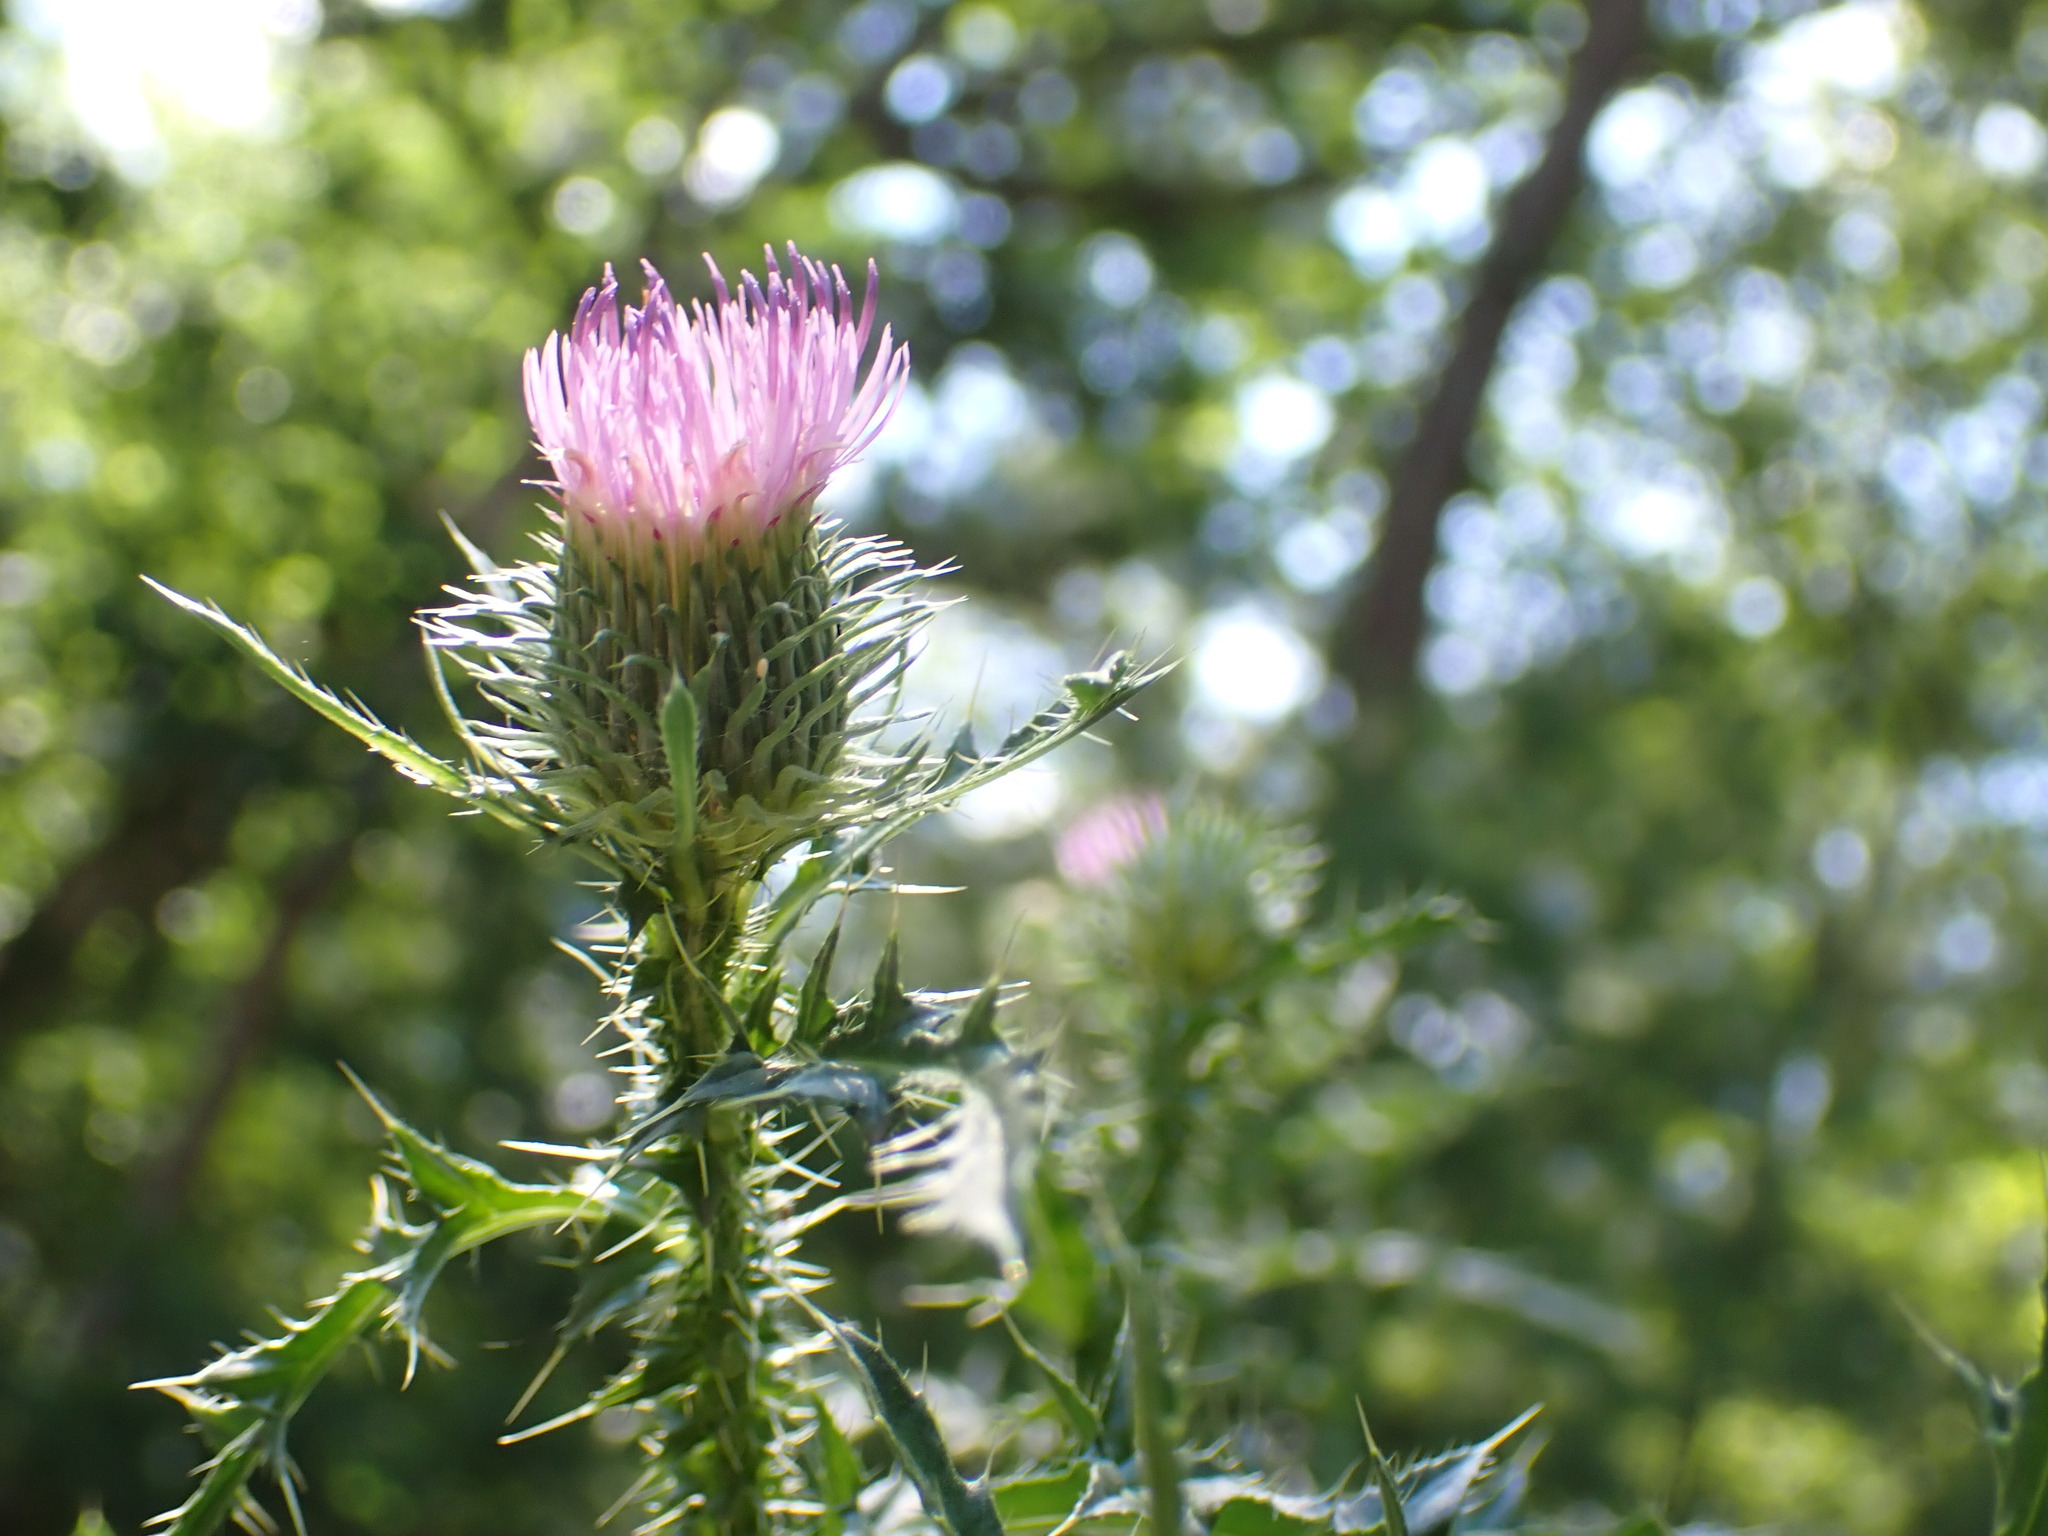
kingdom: Plantae
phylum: Tracheophyta
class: Magnoliopsida
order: Asterales
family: Asteraceae
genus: Carduus
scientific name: Carduus acanthoides
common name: Plumeless thistle
